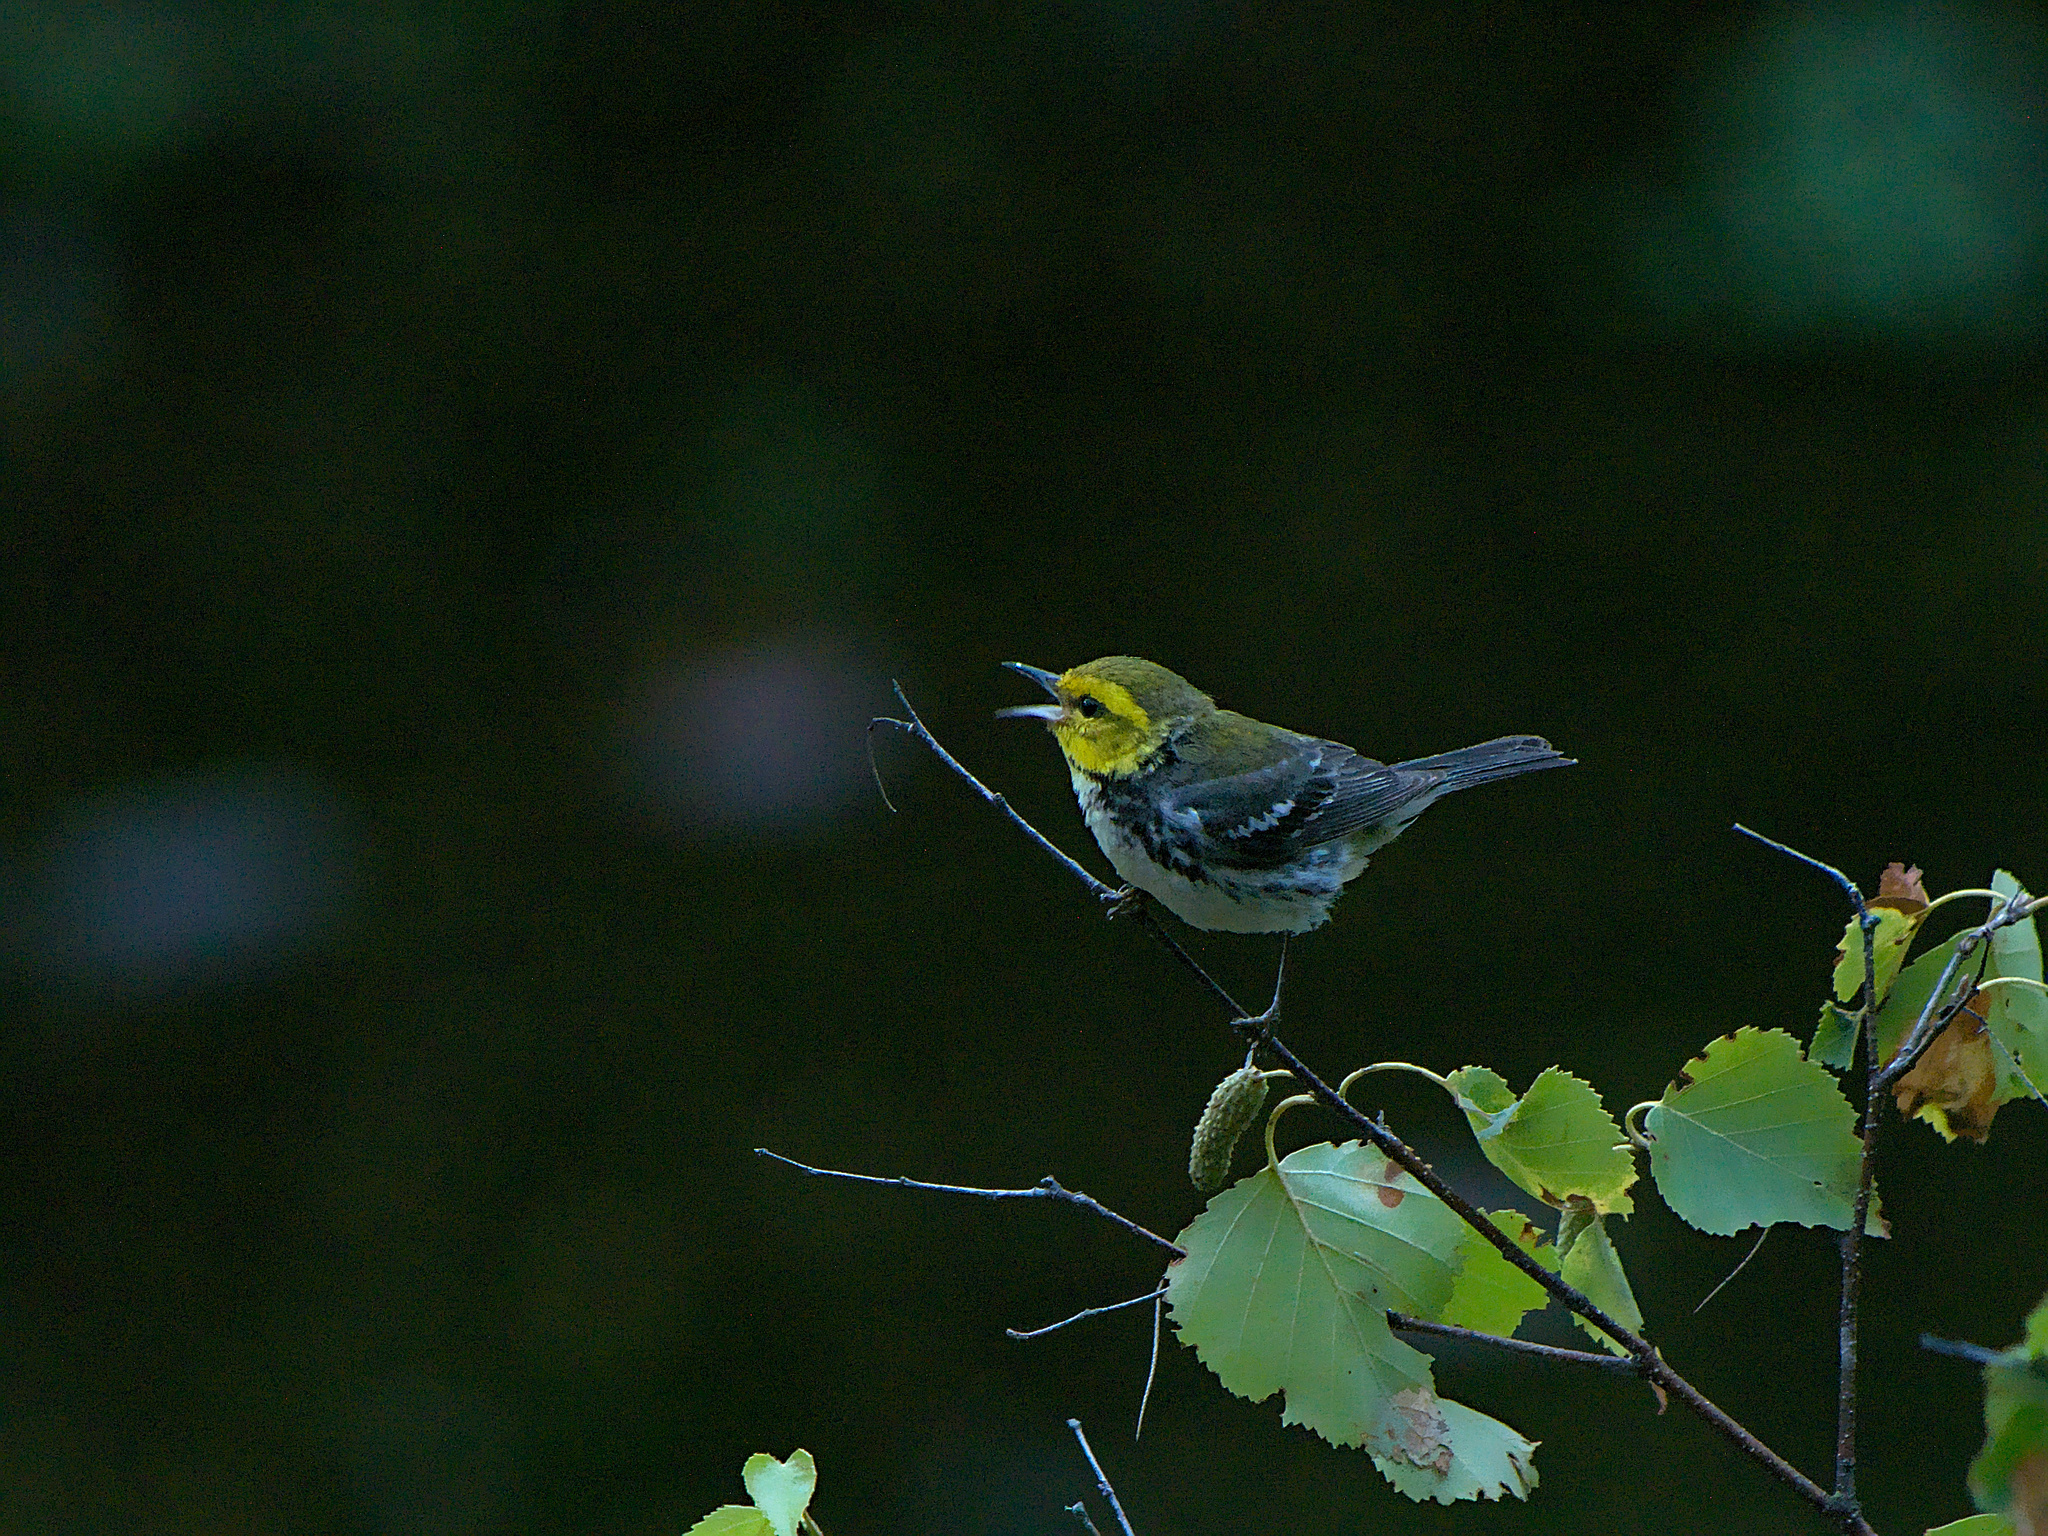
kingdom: Animalia
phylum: Chordata
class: Aves
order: Passeriformes
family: Parulidae
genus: Setophaga
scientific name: Setophaga virens
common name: Black-throated green warbler
